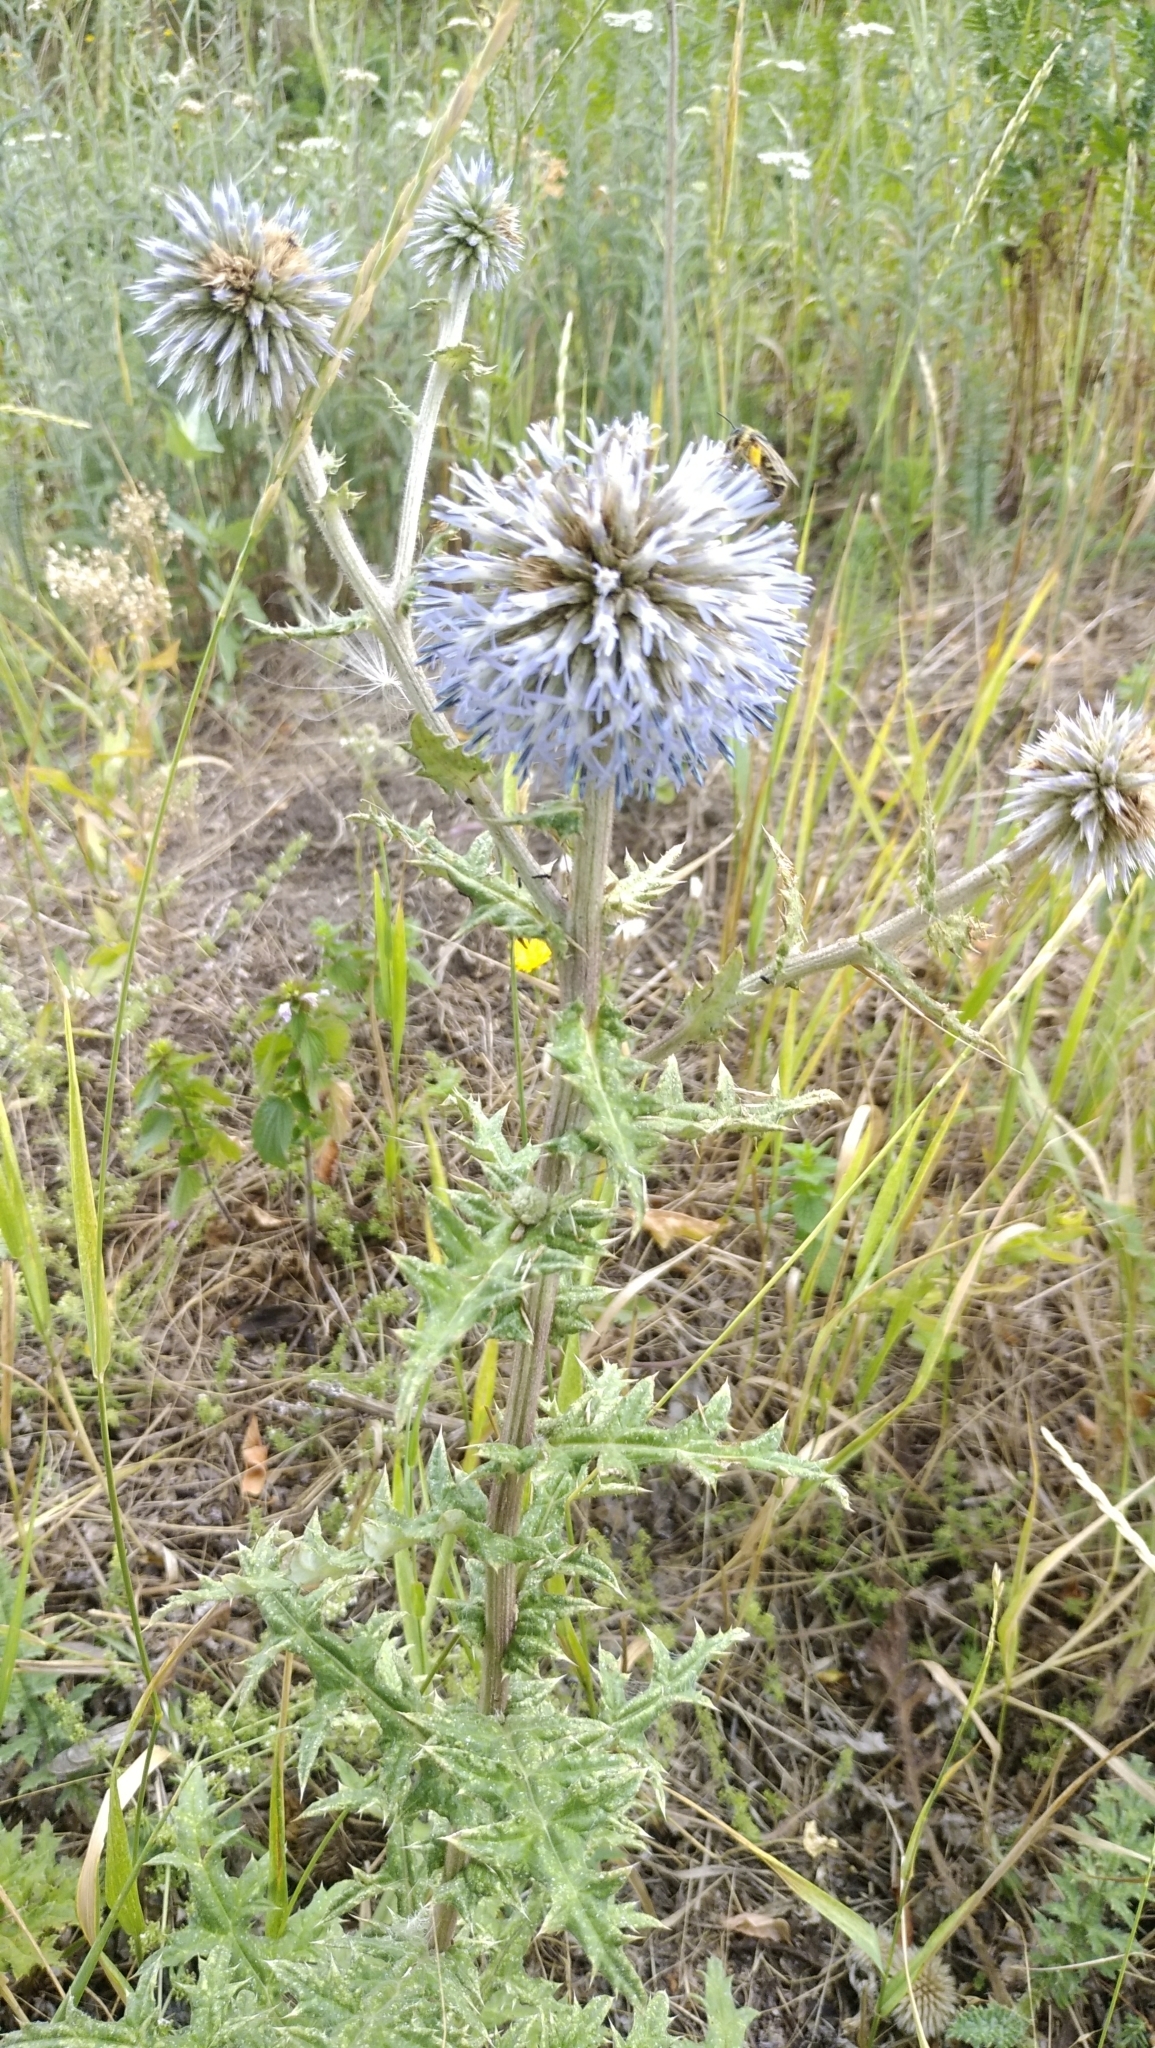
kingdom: Plantae
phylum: Tracheophyta
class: Magnoliopsida
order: Asterales
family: Asteraceae
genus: Echinops
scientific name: Echinops sphaerocephalus
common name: Glandular globe-thistle
